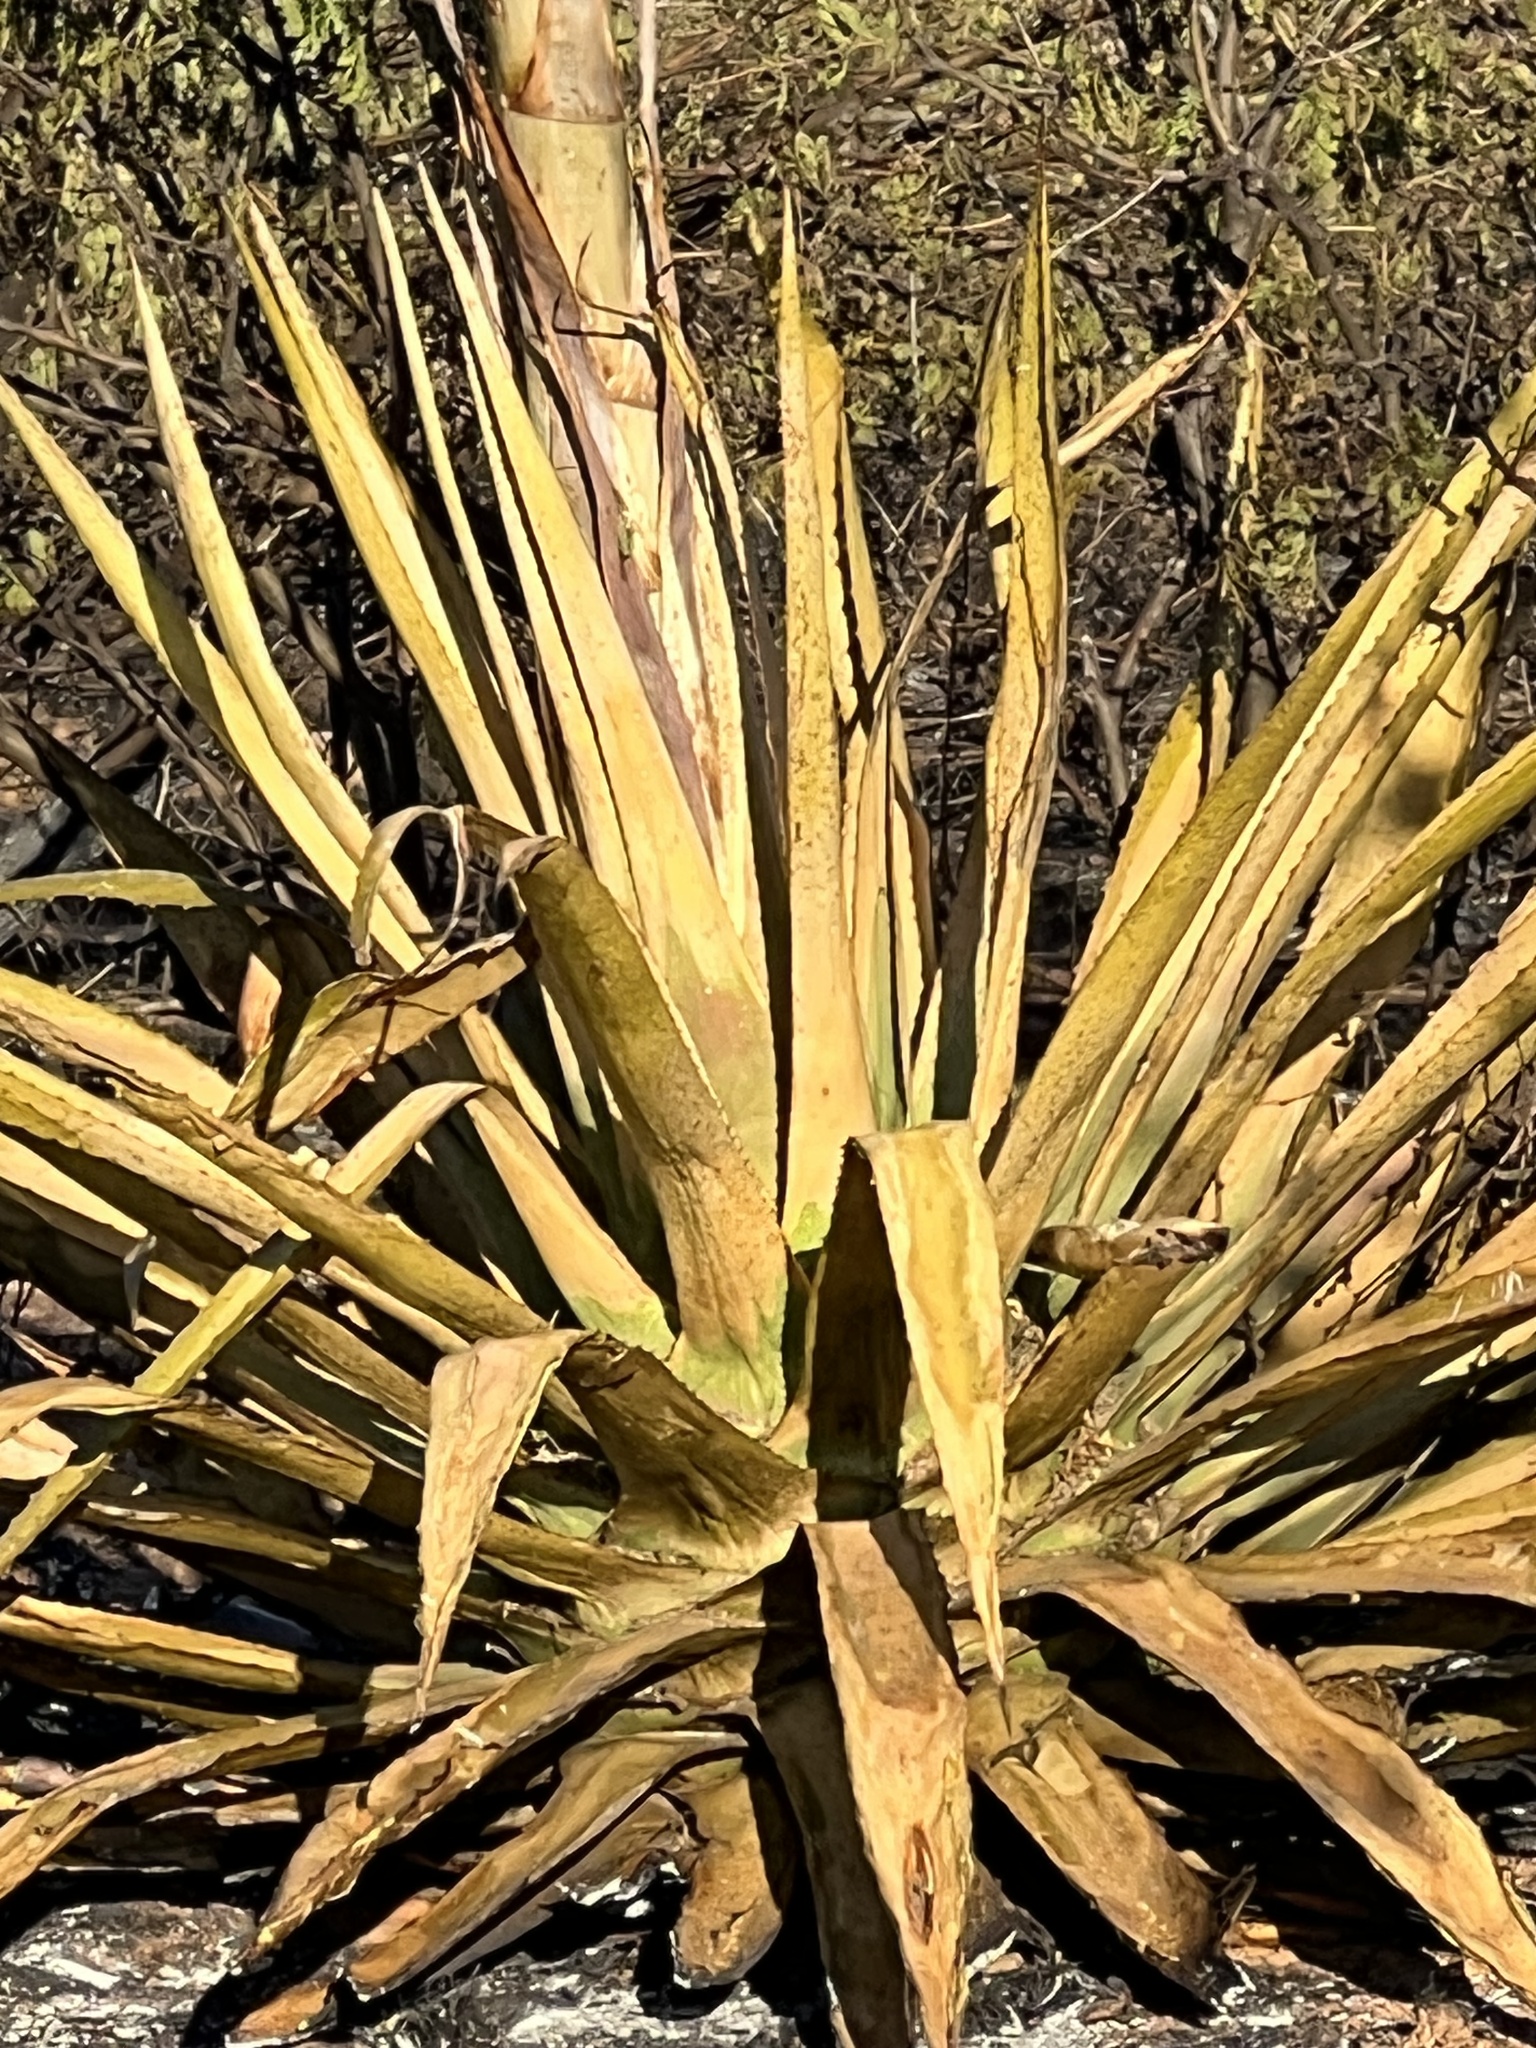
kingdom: Plantae
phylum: Tracheophyta
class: Liliopsida
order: Asparagales
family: Asparagaceae
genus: Agave
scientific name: Agave palmeri
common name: Palmer agave
